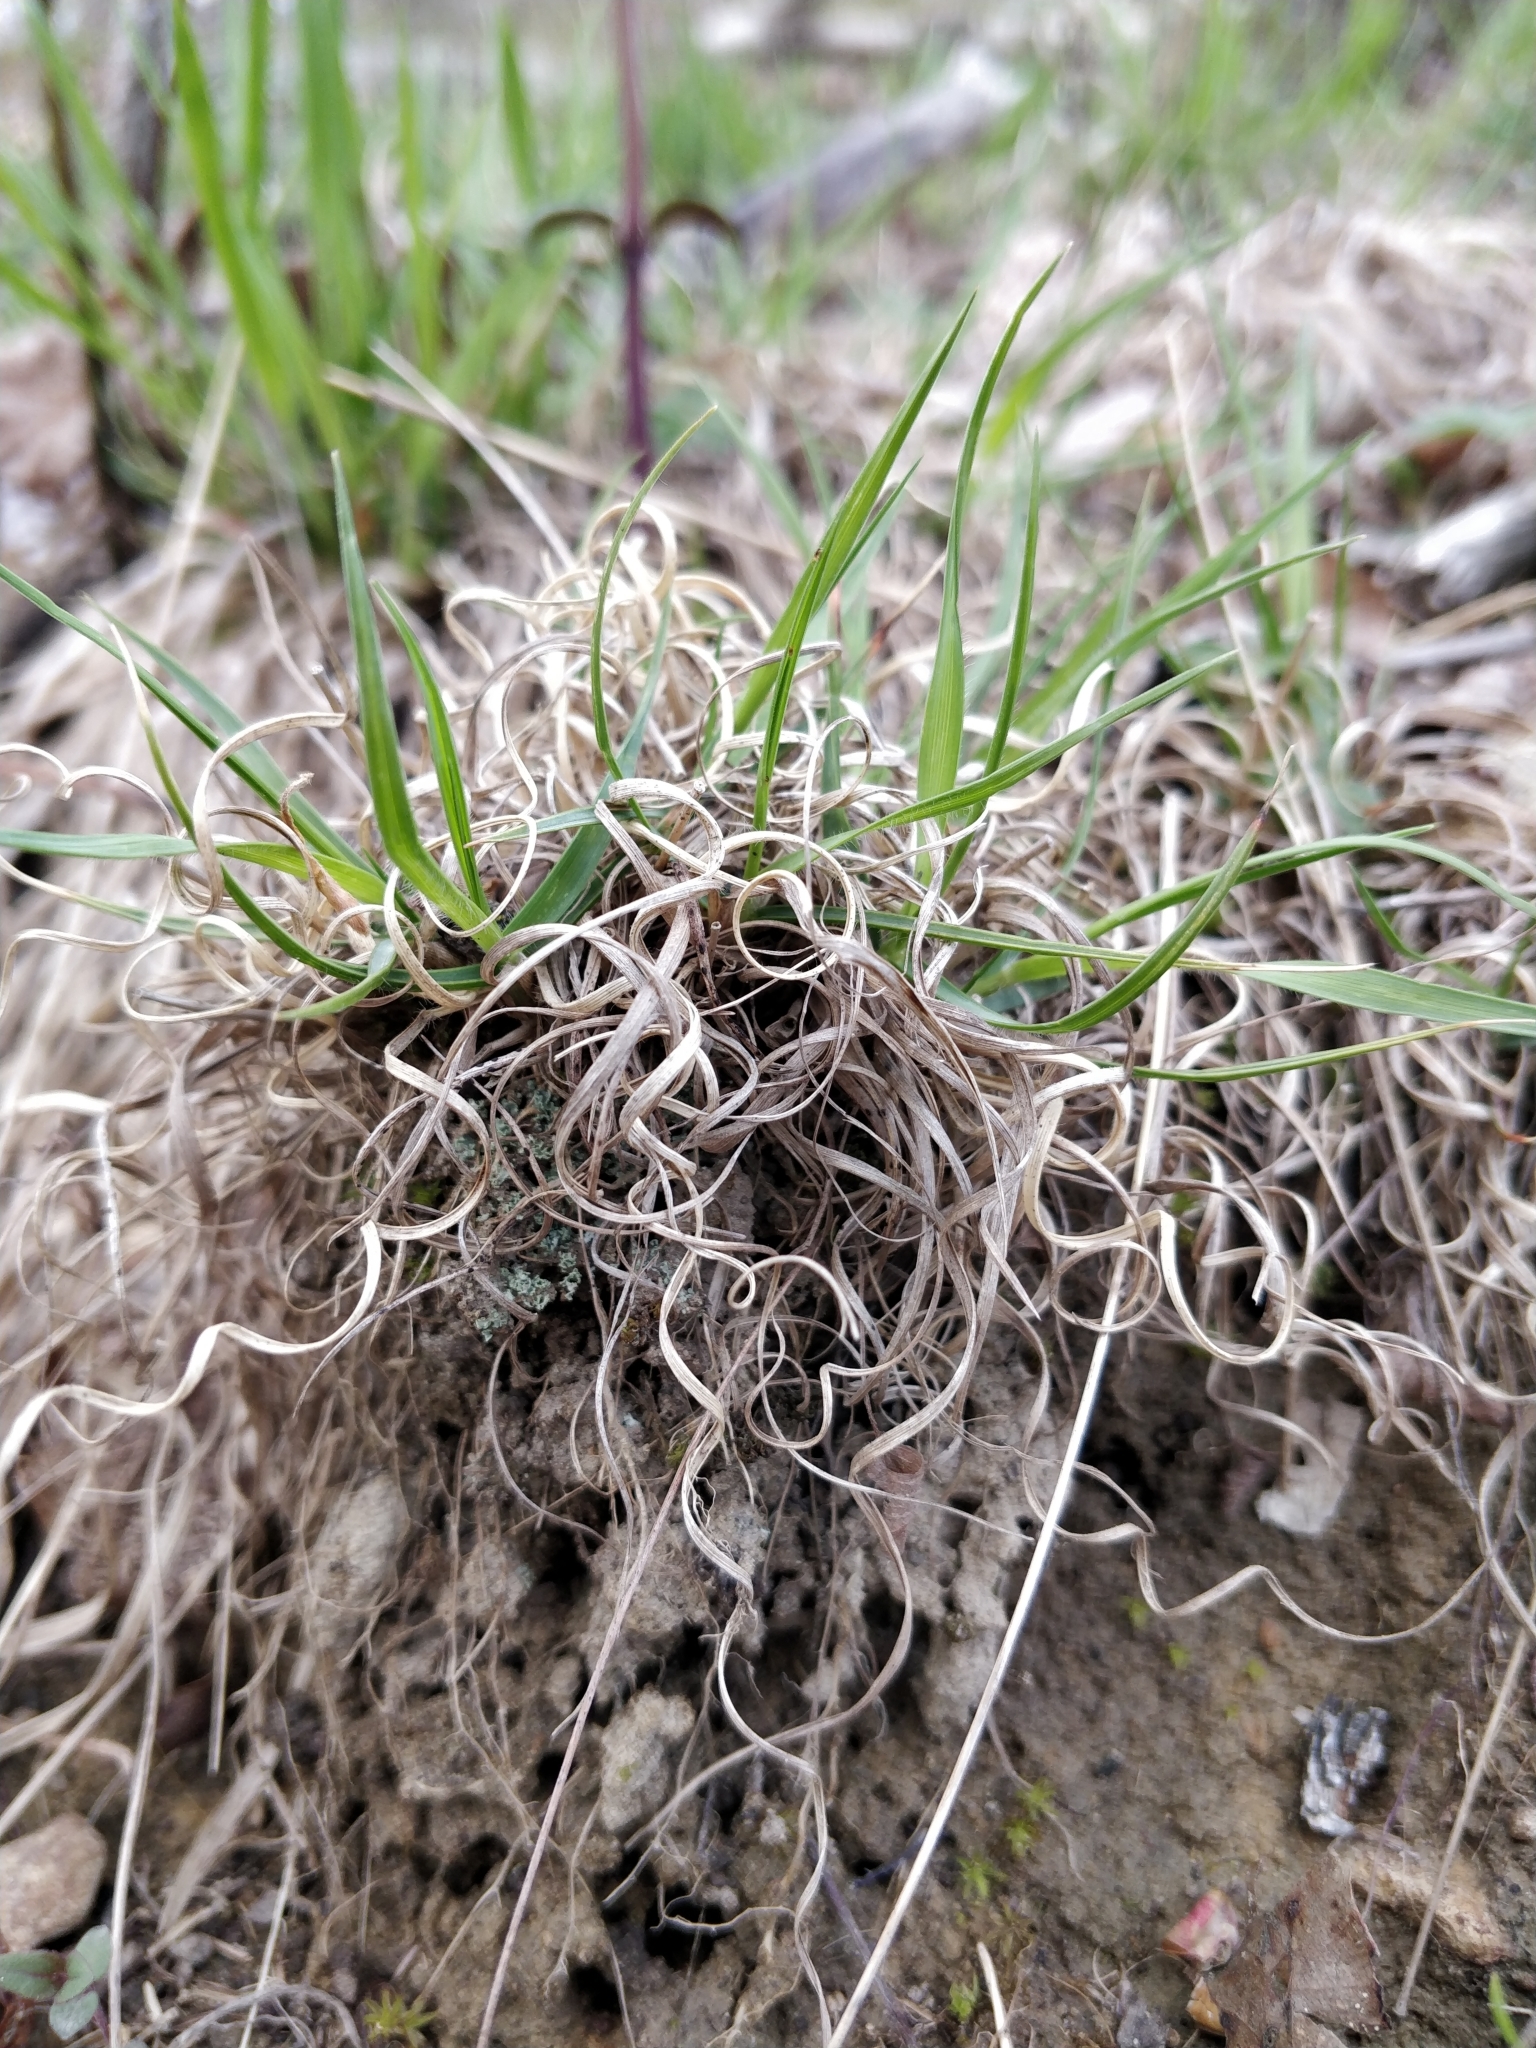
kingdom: Plantae
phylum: Tracheophyta
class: Liliopsida
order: Poales
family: Poaceae
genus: Danthonia
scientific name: Danthonia spicata
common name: Common wild oatgrass
